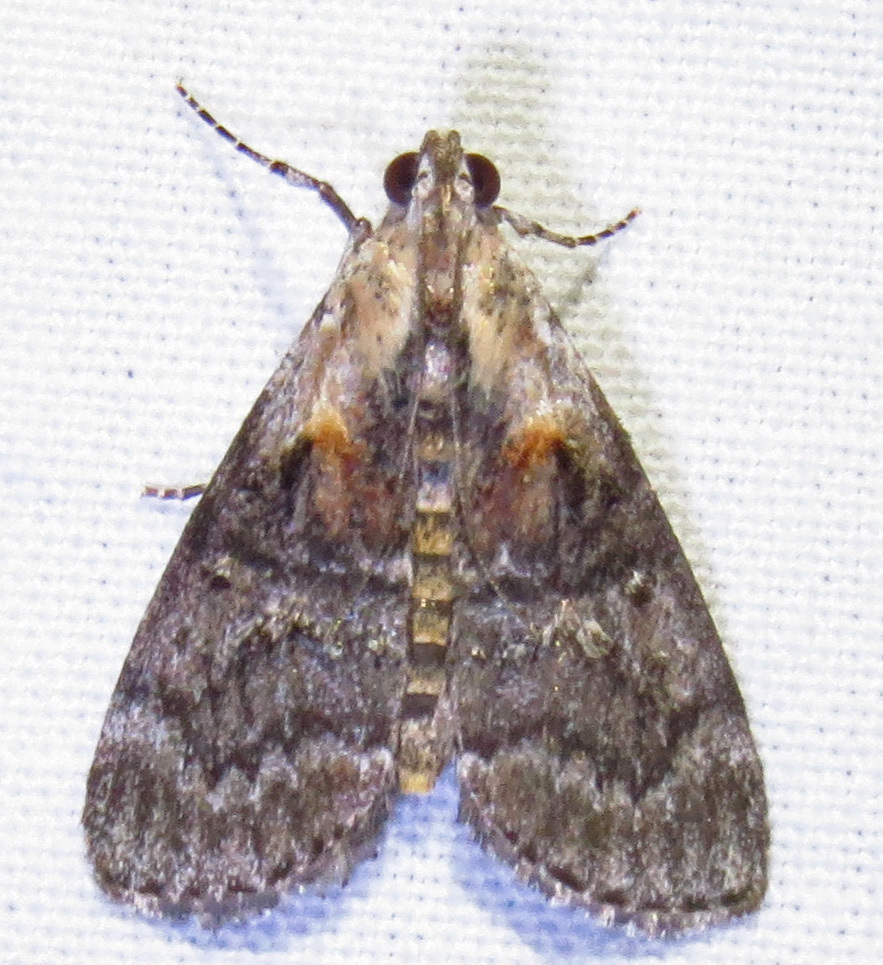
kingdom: Animalia
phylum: Arthropoda
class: Insecta
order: Lepidoptera
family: Pyralidae
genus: Pococera
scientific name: Pococera expandens
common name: Striped oak webworm moth
